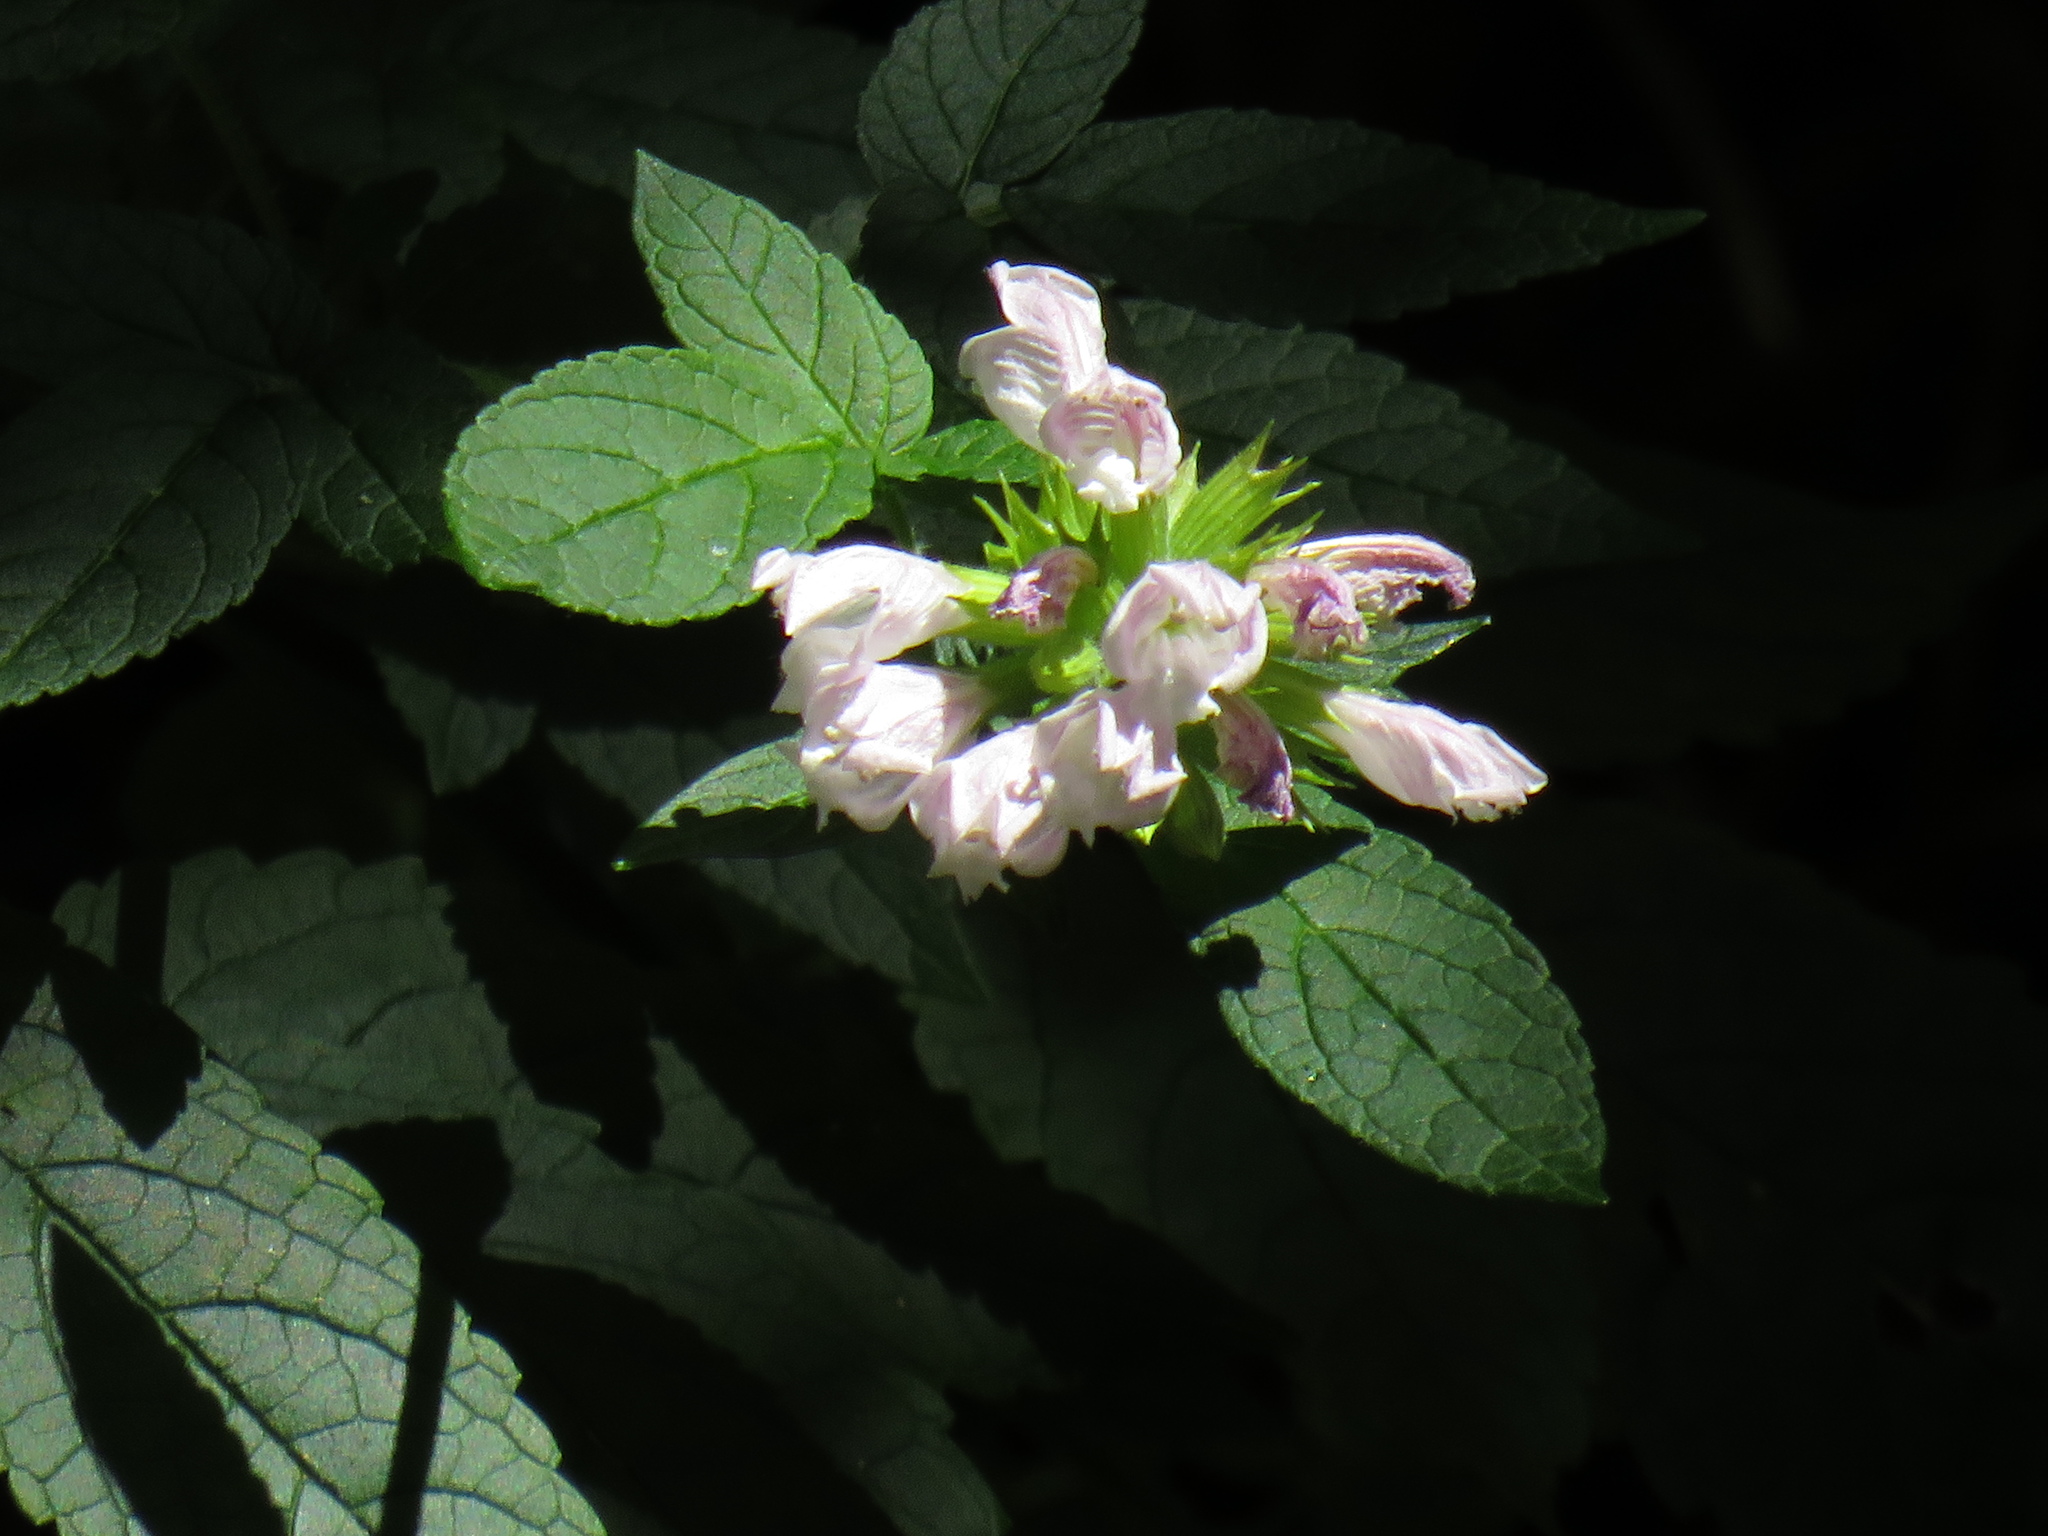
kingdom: Plantae
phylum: Tracheophyta
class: Magnoliopsida
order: Lamiales
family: Lamiaceae
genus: Cedronella
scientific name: Cedronella canariensis
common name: Canary islands balm
